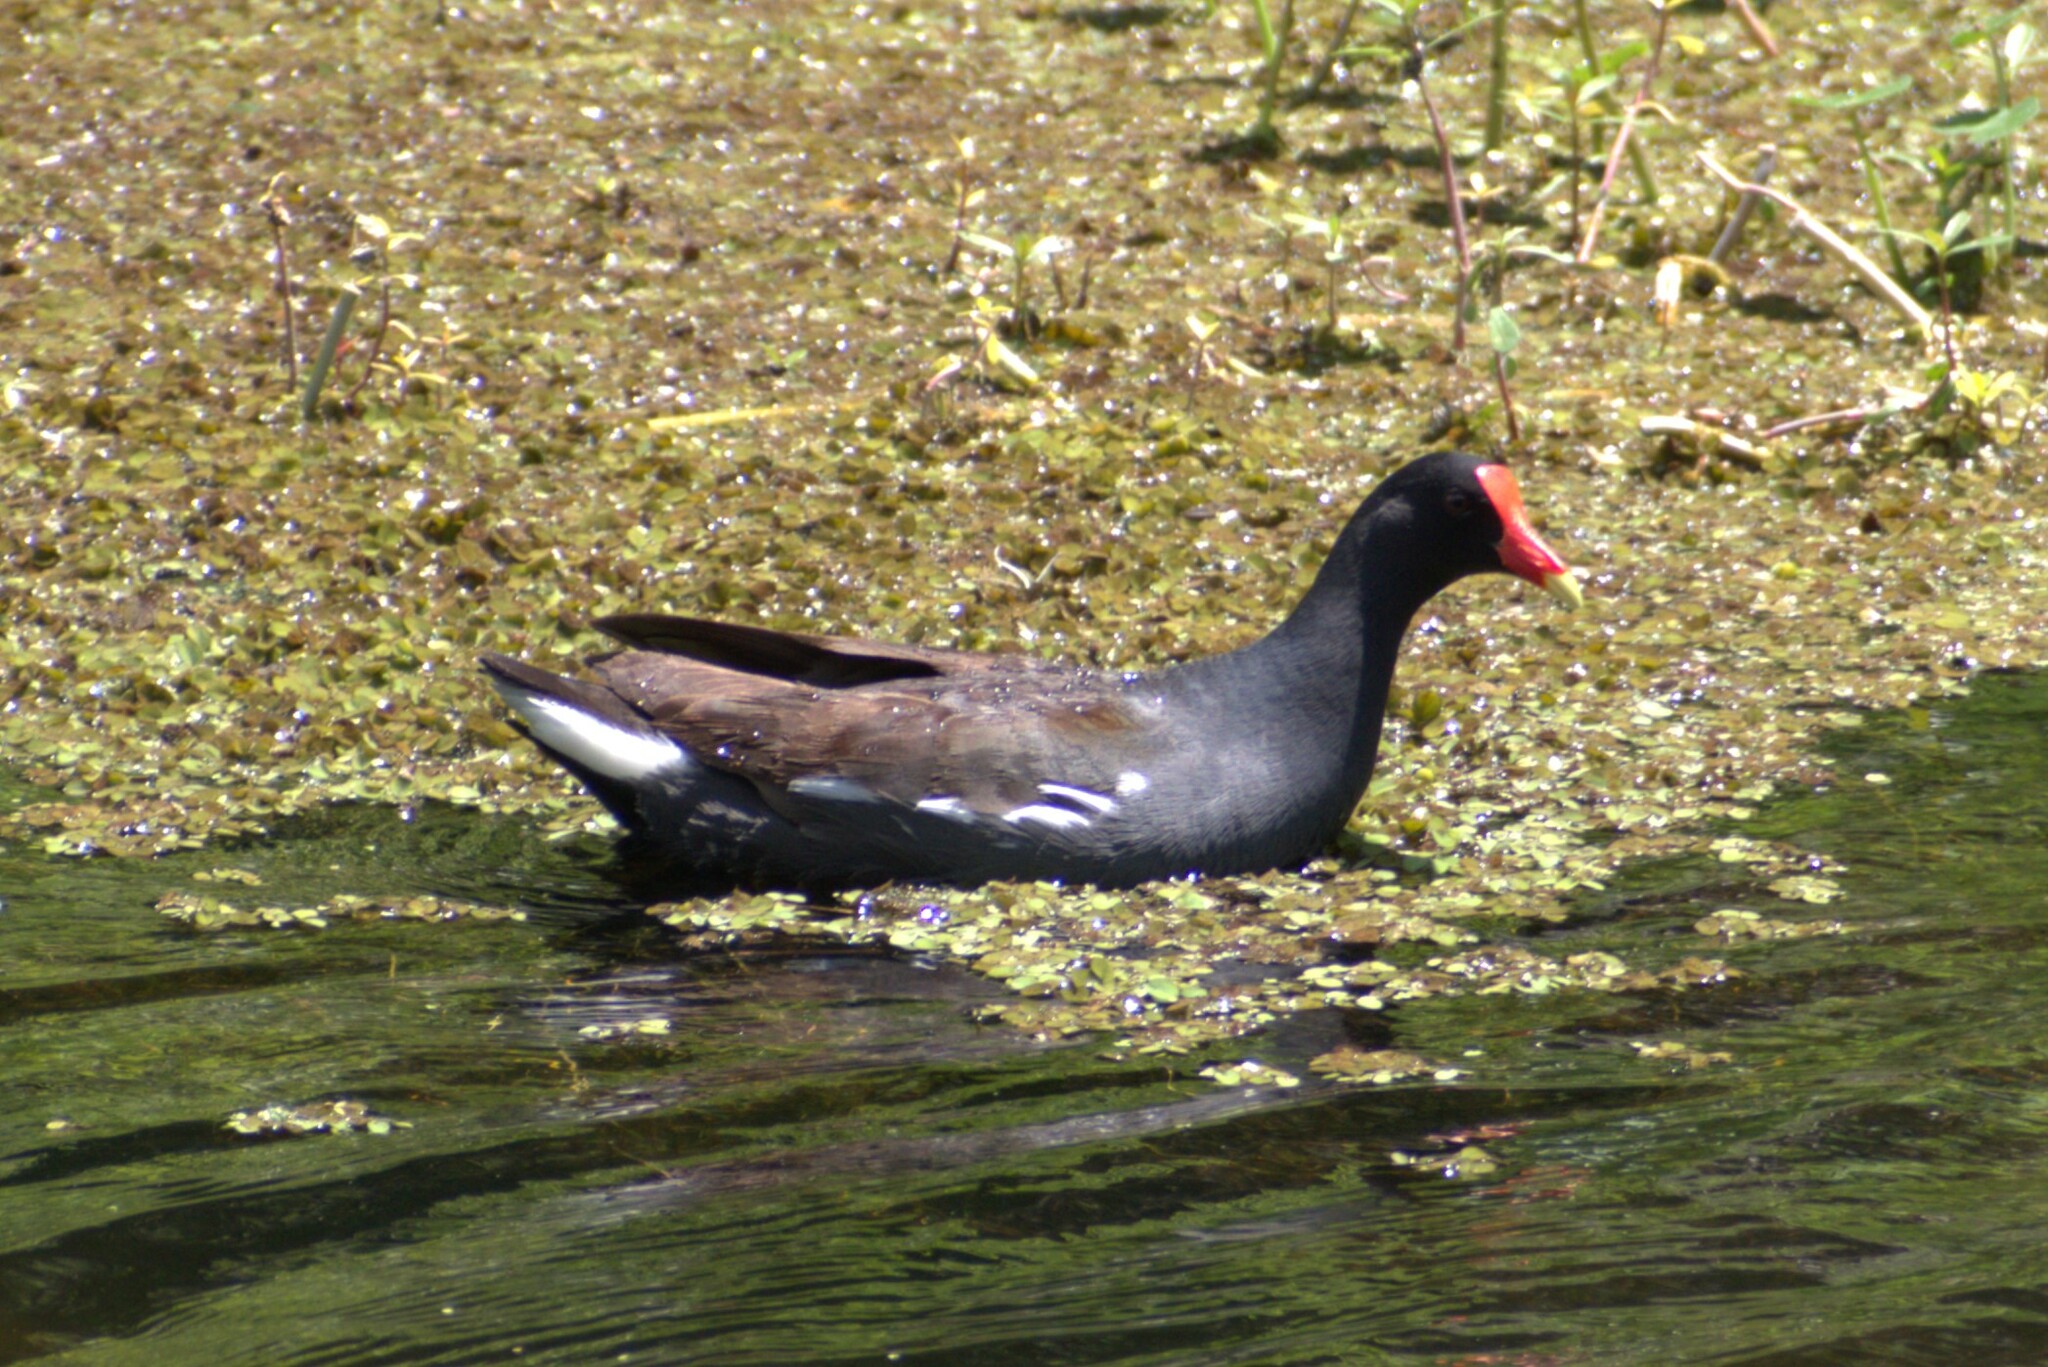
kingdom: Animalia
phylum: Chordata
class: Aves
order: Gruiformes
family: Rallidae
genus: Gallinula
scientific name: Gallinula chloropus
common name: Common moorhen
